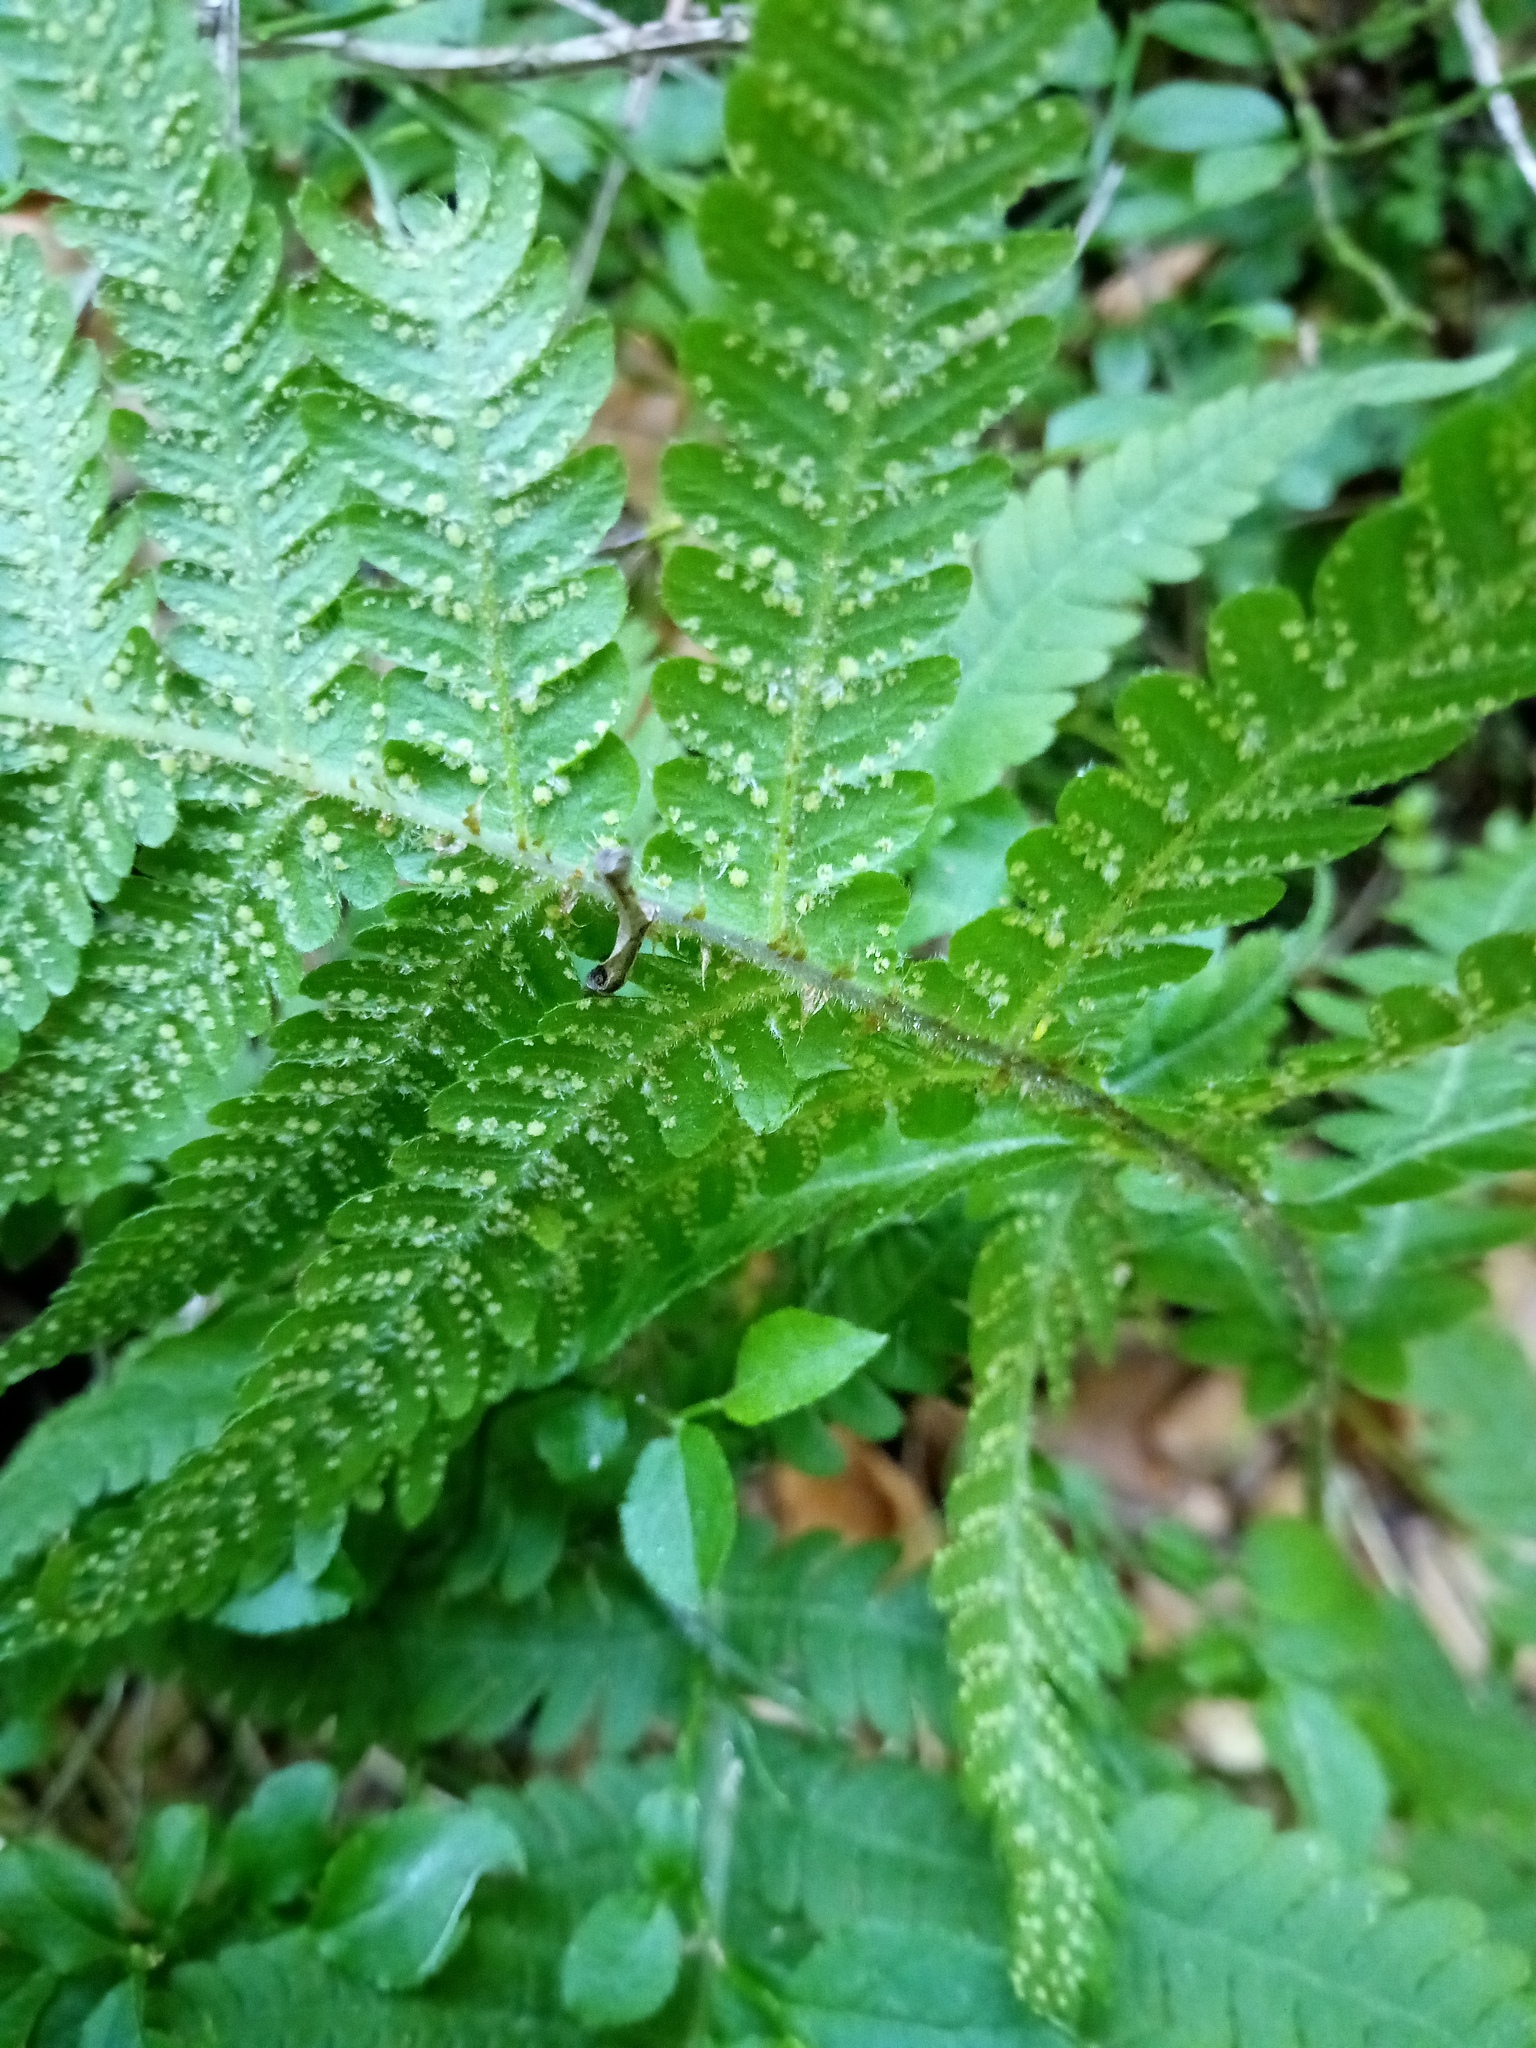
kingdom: Plantae
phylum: Tracheophyta
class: Polypodiopsida
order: Polypodiales
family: Thelypteridaceae
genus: Phegopteris
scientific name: Phegopteris connectilis
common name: Beech fern
